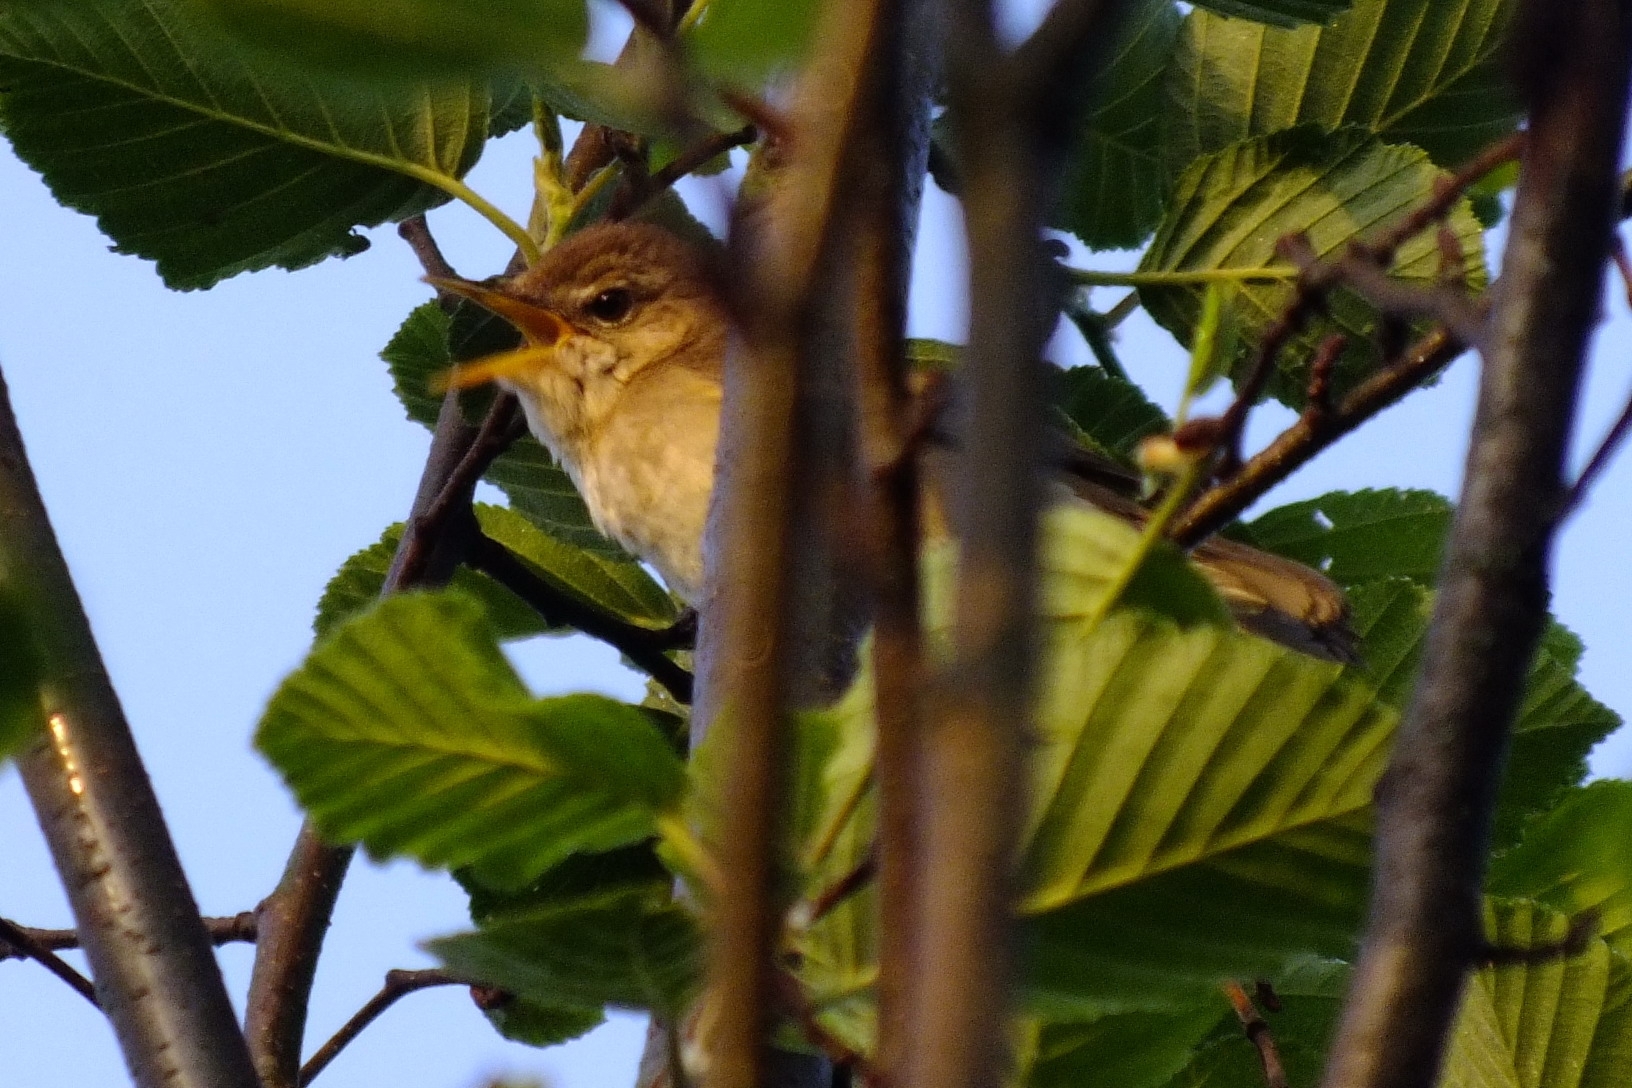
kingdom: Animalia
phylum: Chordata
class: Aves
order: Passeriformes
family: Acrocephalidae
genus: Acrocephalus
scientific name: Acrocephalus dumetorum
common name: Blyth's reed warbler
